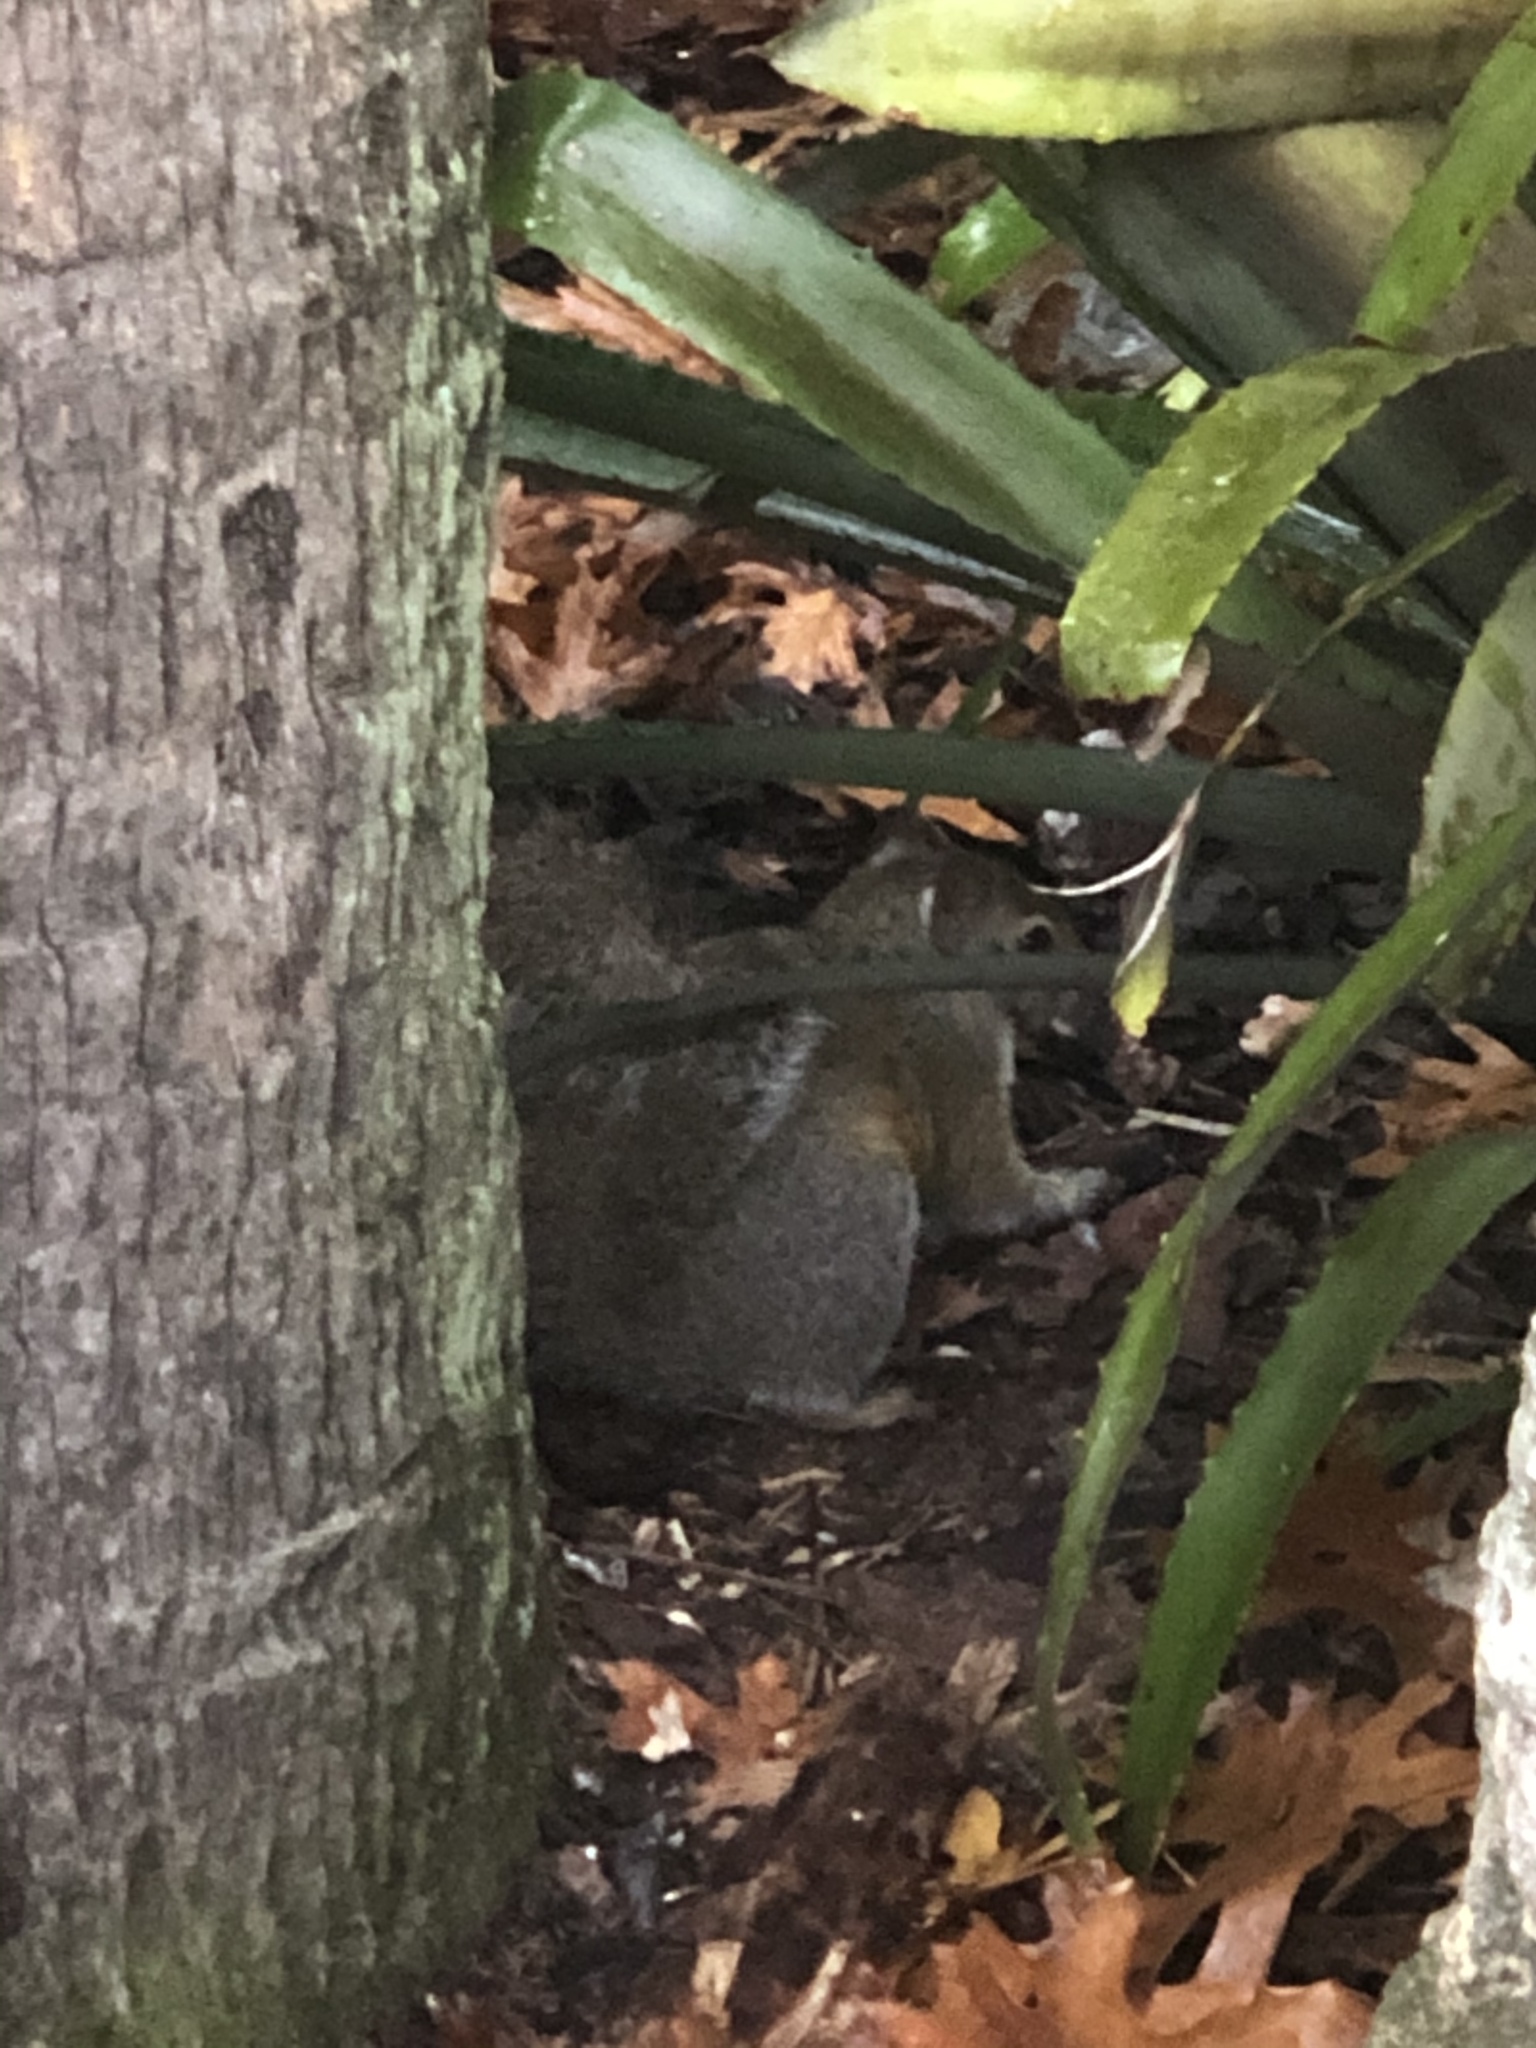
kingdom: Animalia
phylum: Chordata
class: Mammalia
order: Rodentia
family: Sciuridae
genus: Sciurus
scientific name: Sciurus carolinensis
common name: Eastern gray squirrel
